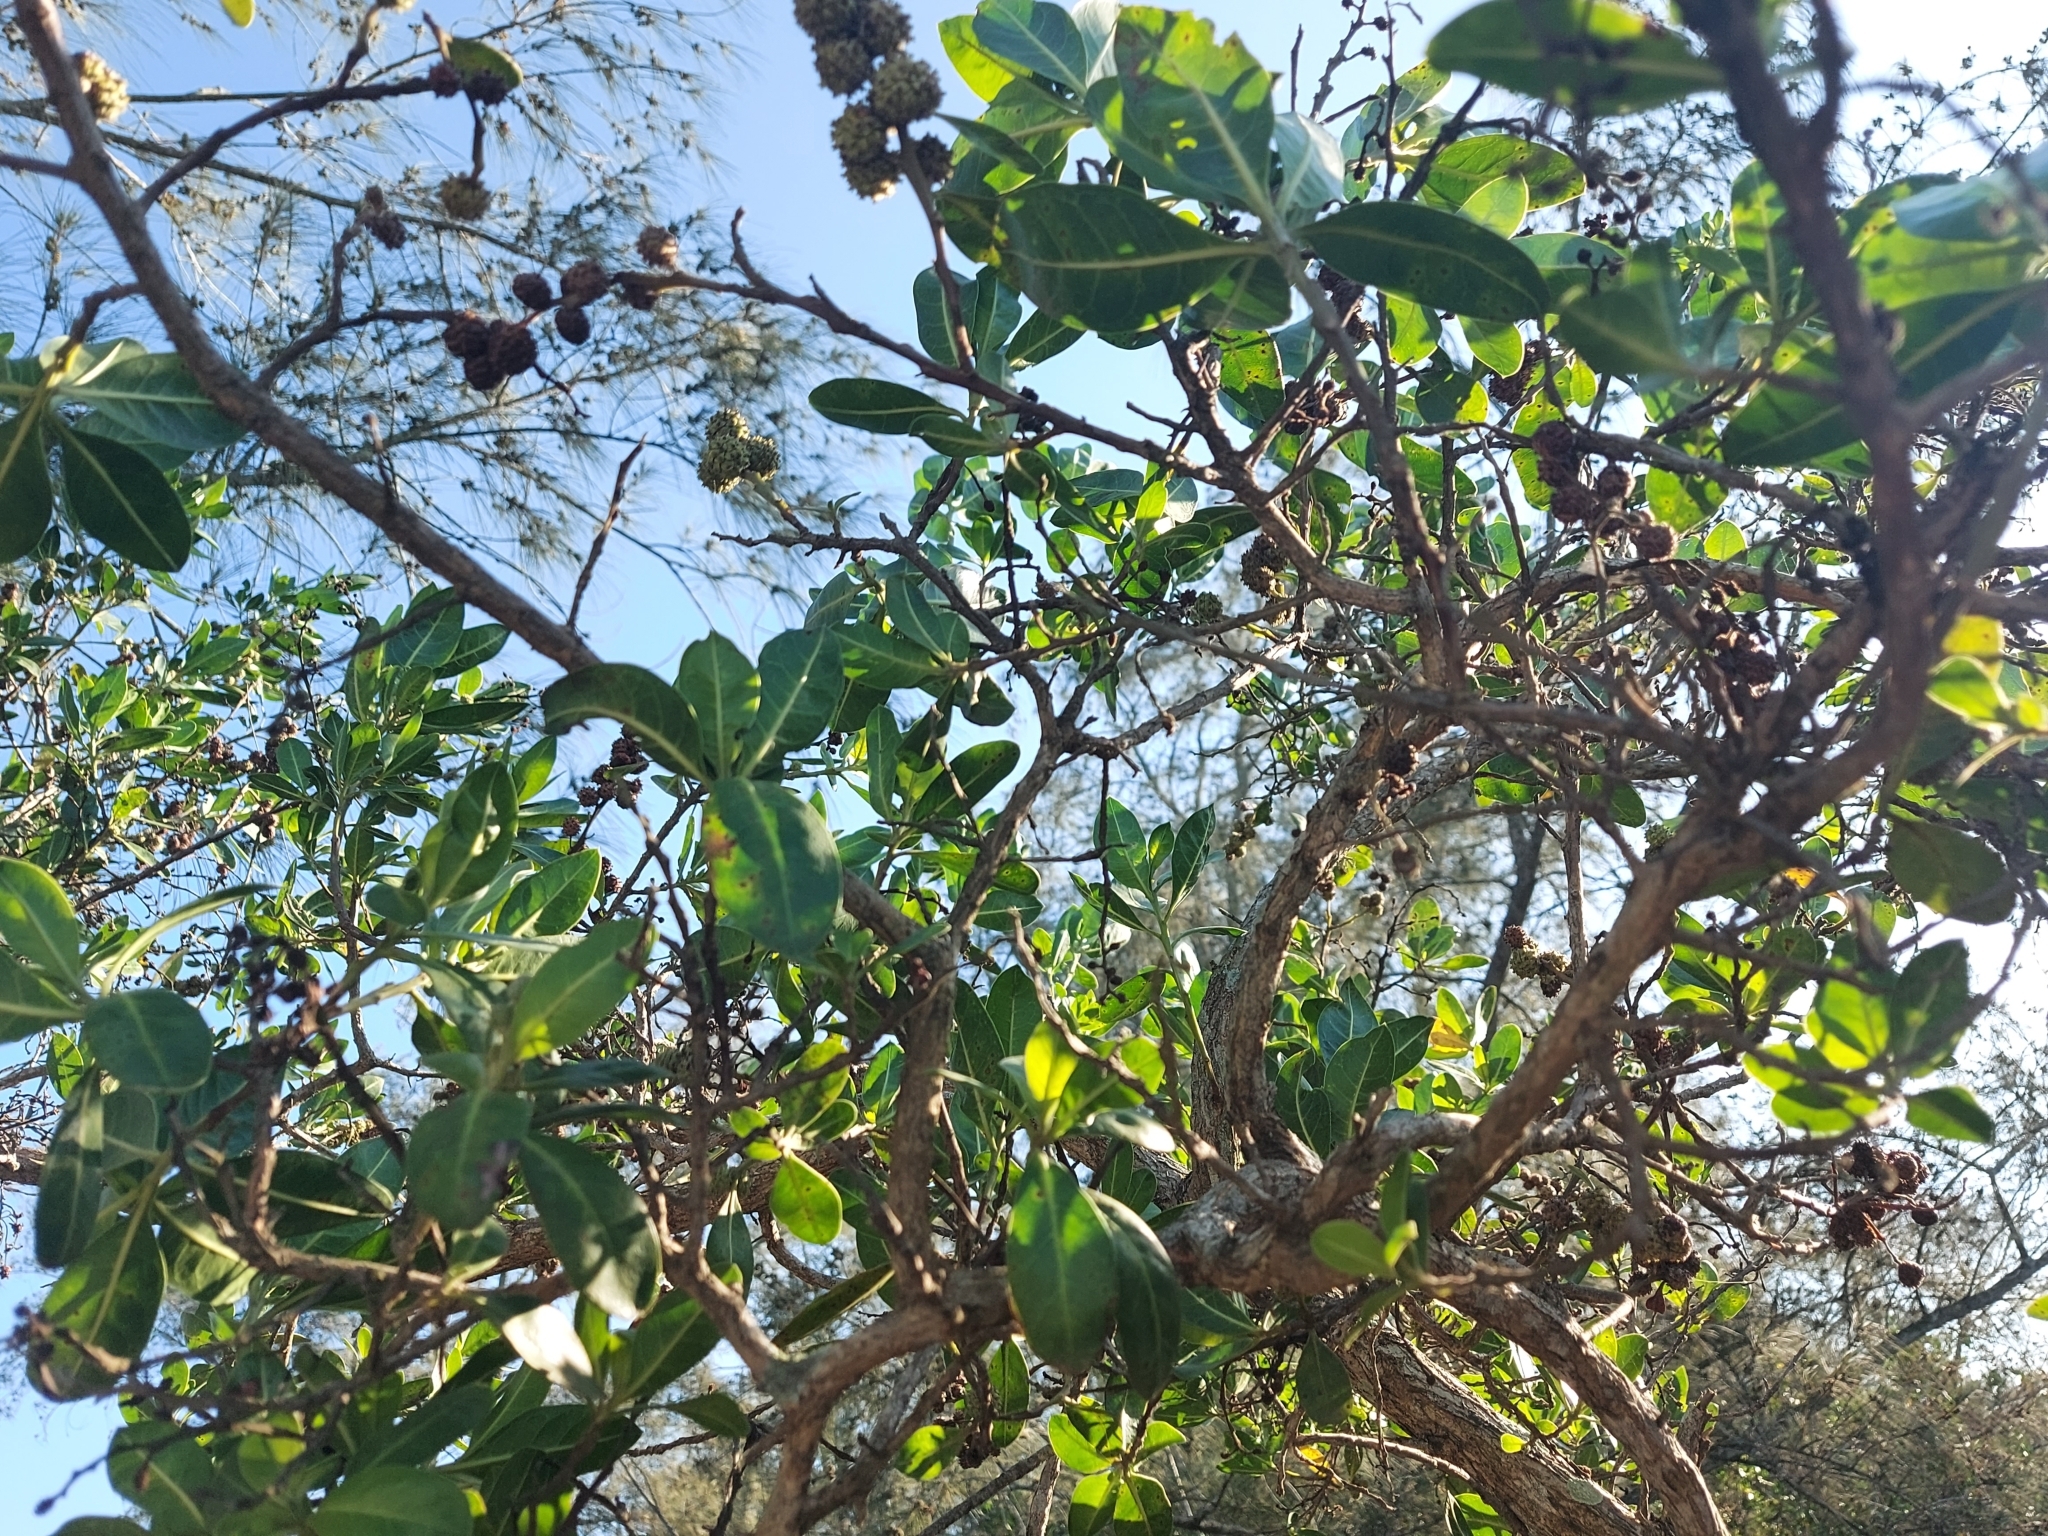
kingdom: Plantae
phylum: Tracheophyta
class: Magnoliopsida
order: Myrtales
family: Combretaceae
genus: Conocarpus
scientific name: Conocarpus erectus
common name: Button mangrove
